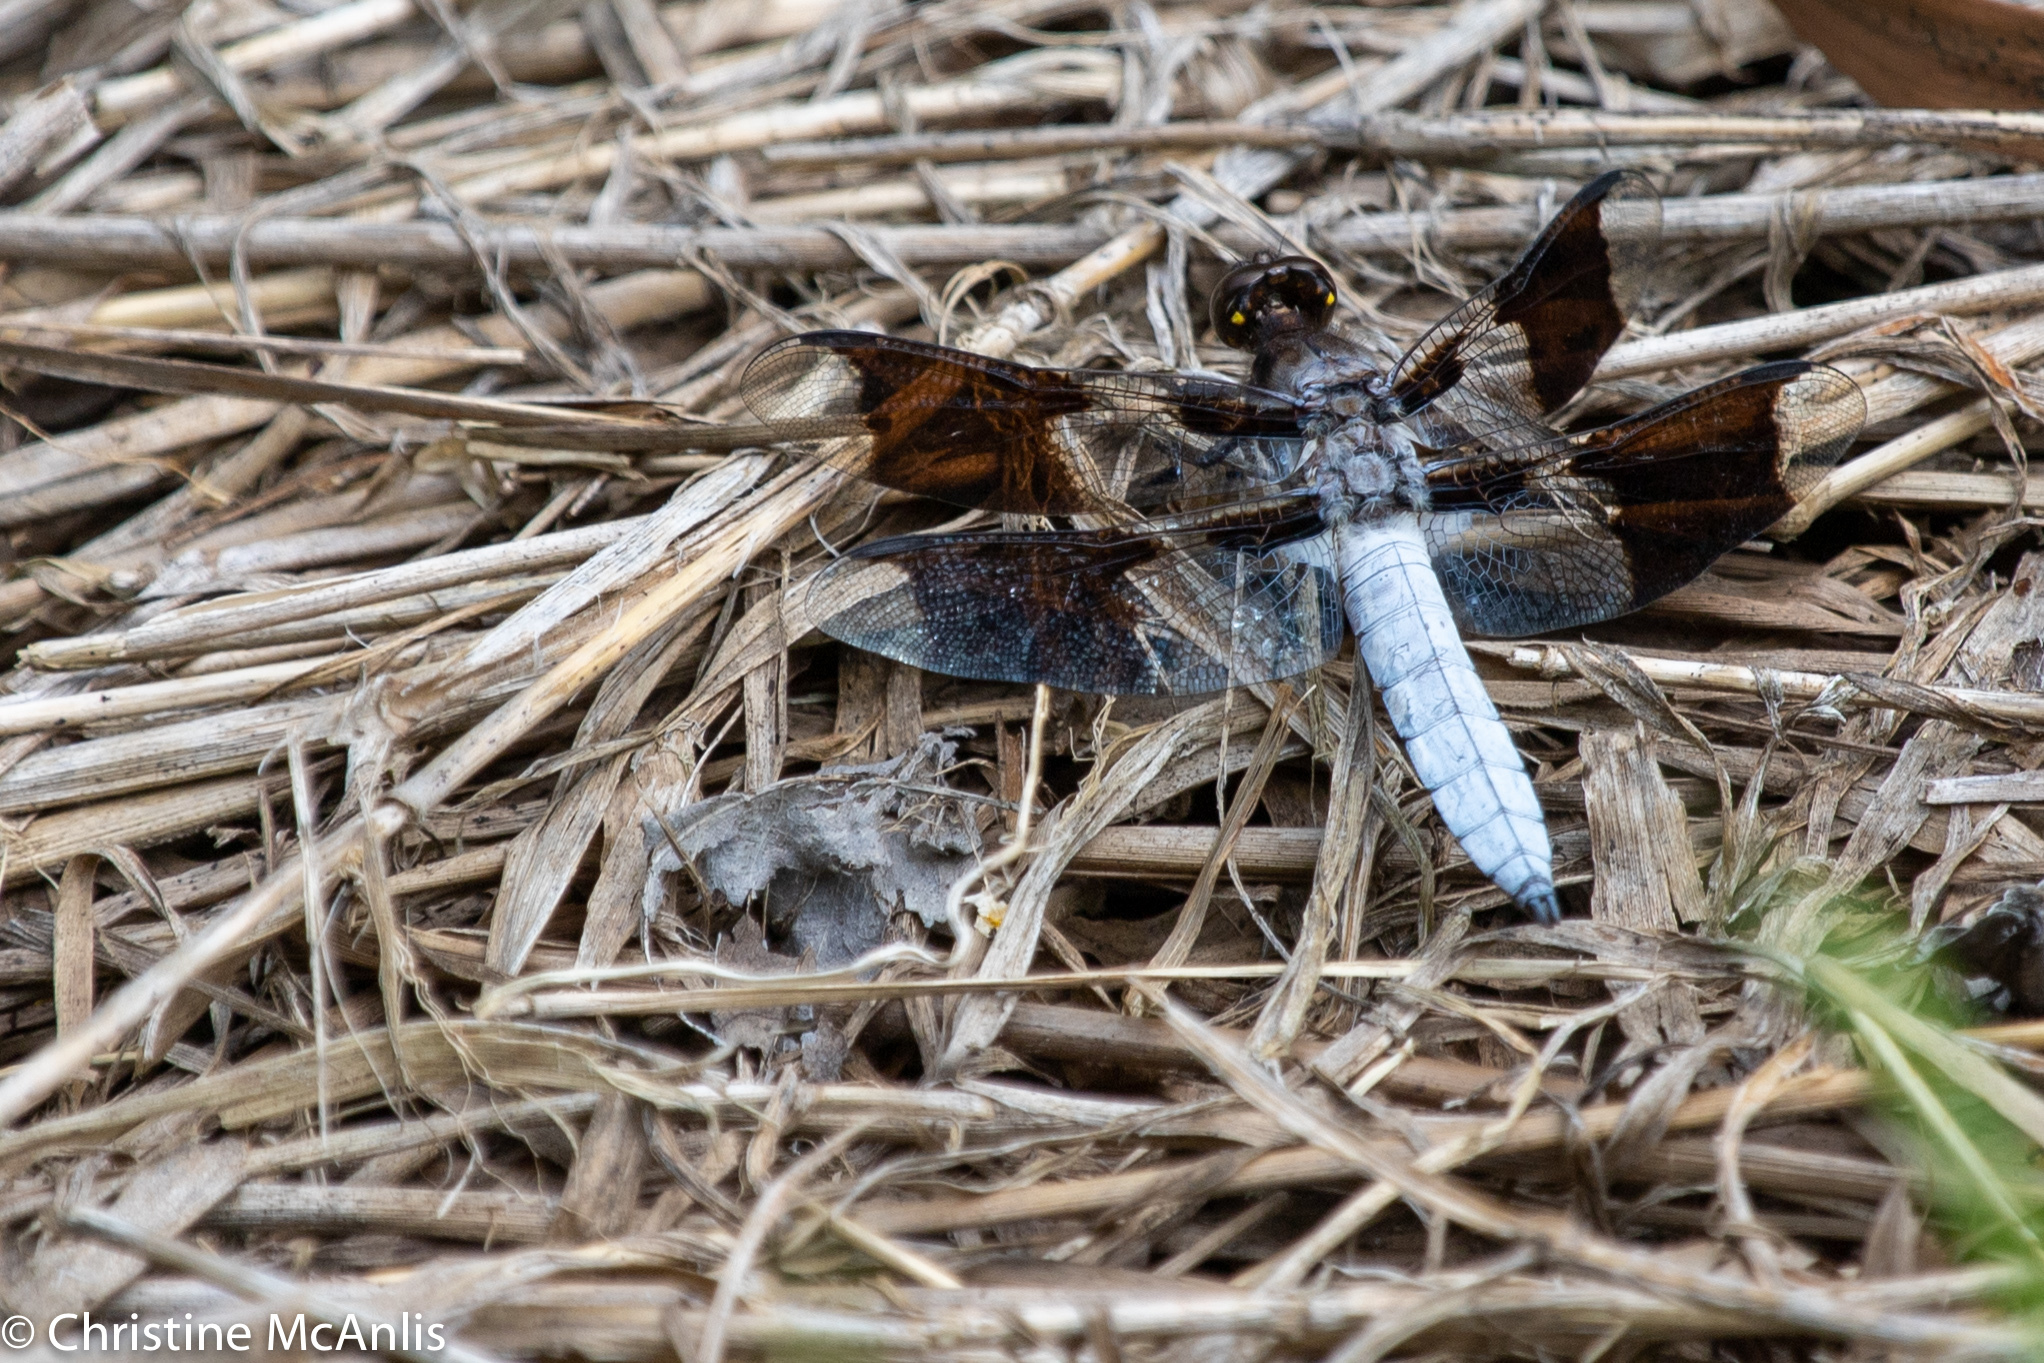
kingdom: Animalia
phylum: Arthropoda
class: Insecta
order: Odonata
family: Libellulidae
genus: Plathemis
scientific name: Plathemis lydia
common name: Common whitetail
